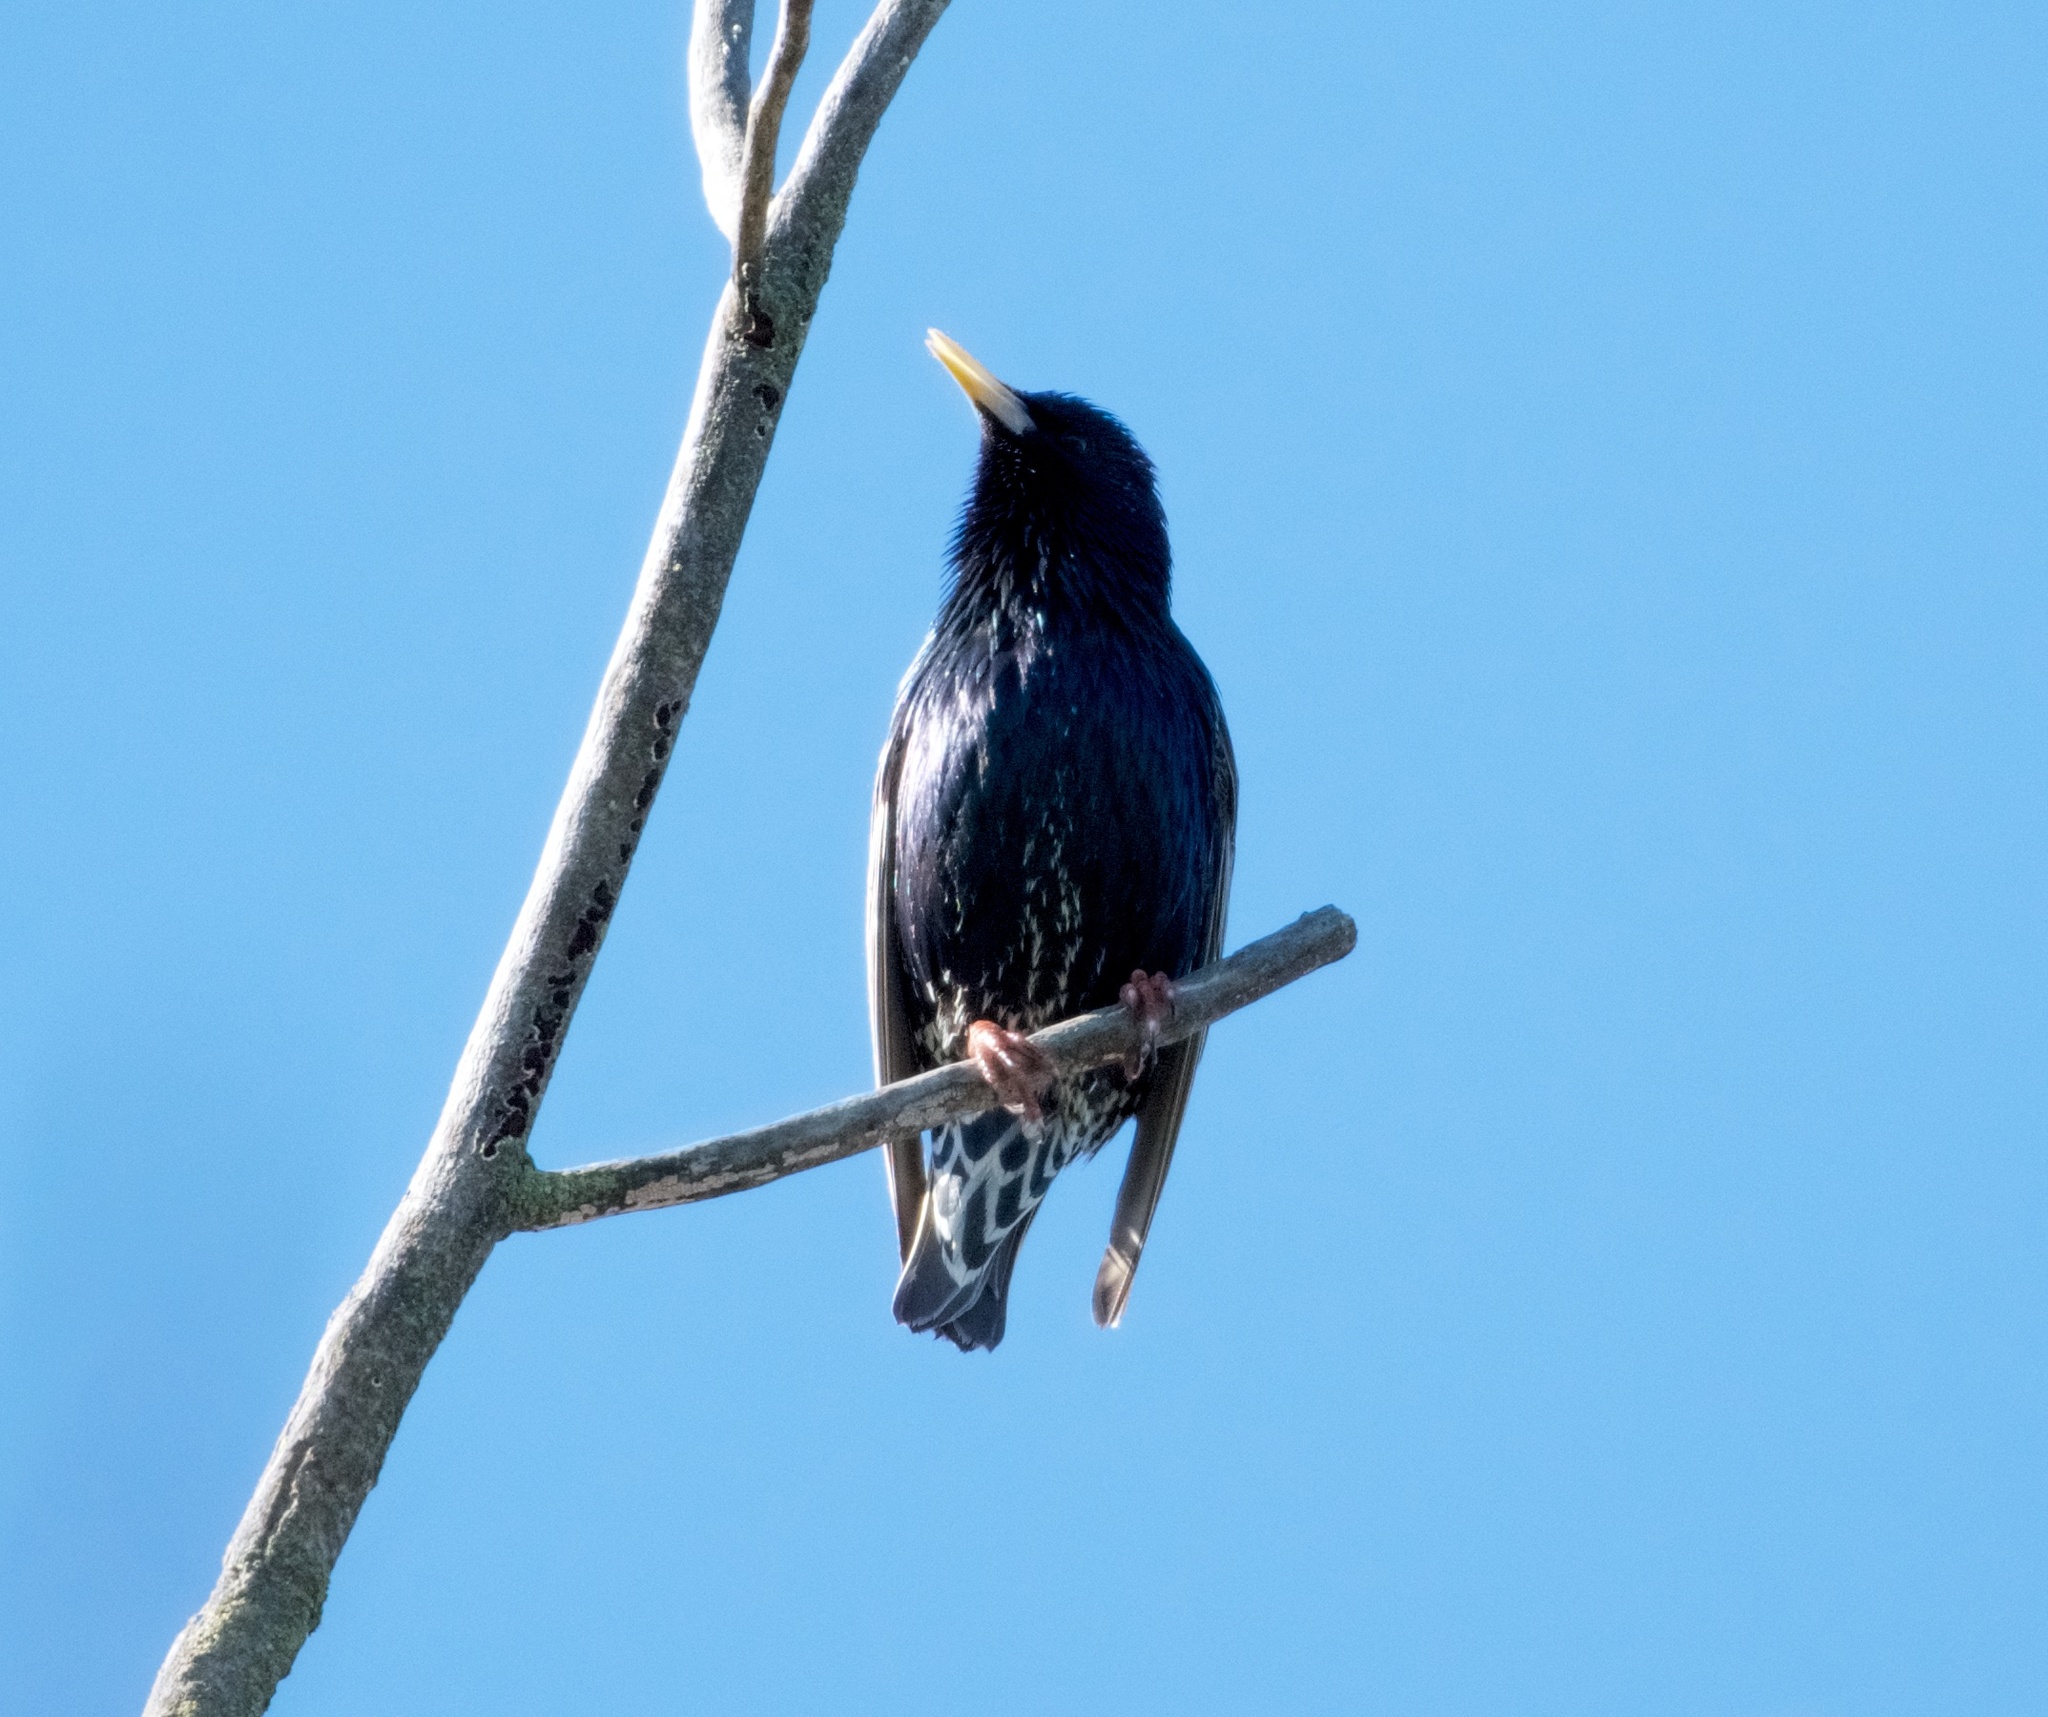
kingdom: Animalia
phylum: Chordata
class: Aves
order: Passeriformes
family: Sturnidae
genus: Sturnus
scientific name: Sturnus vulgaris
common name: Common starling
